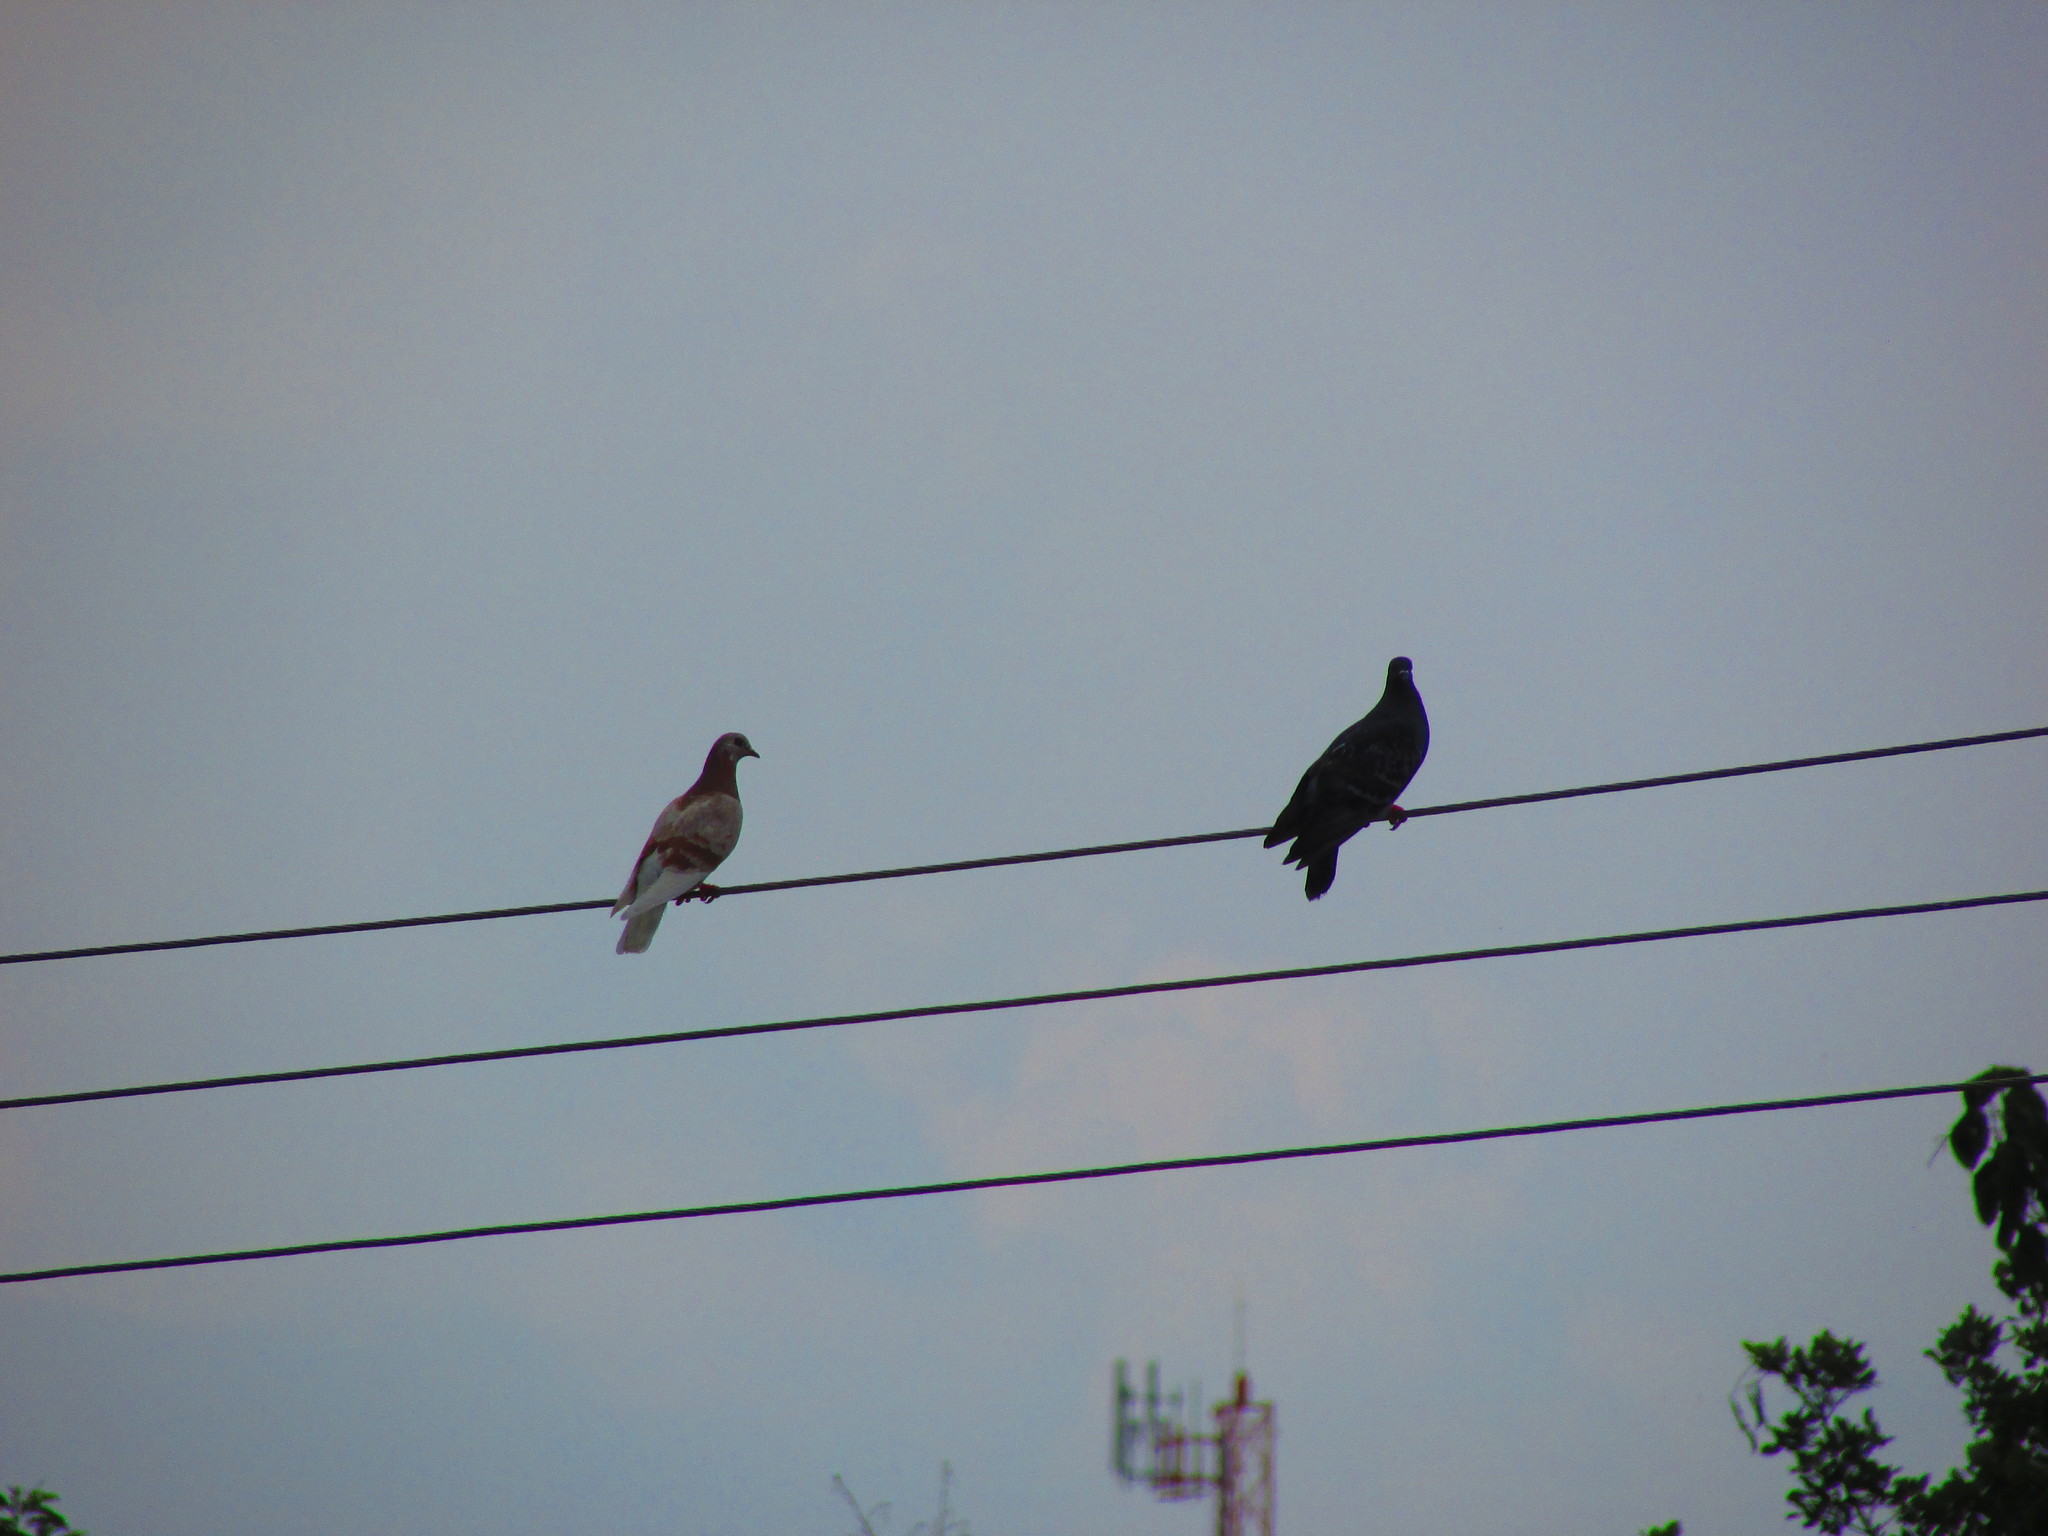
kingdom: Animalia
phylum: Chordata
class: Aves
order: Columbiformes
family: Columbidae
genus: Columba
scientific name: Columba livia
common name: Rock pigeon
